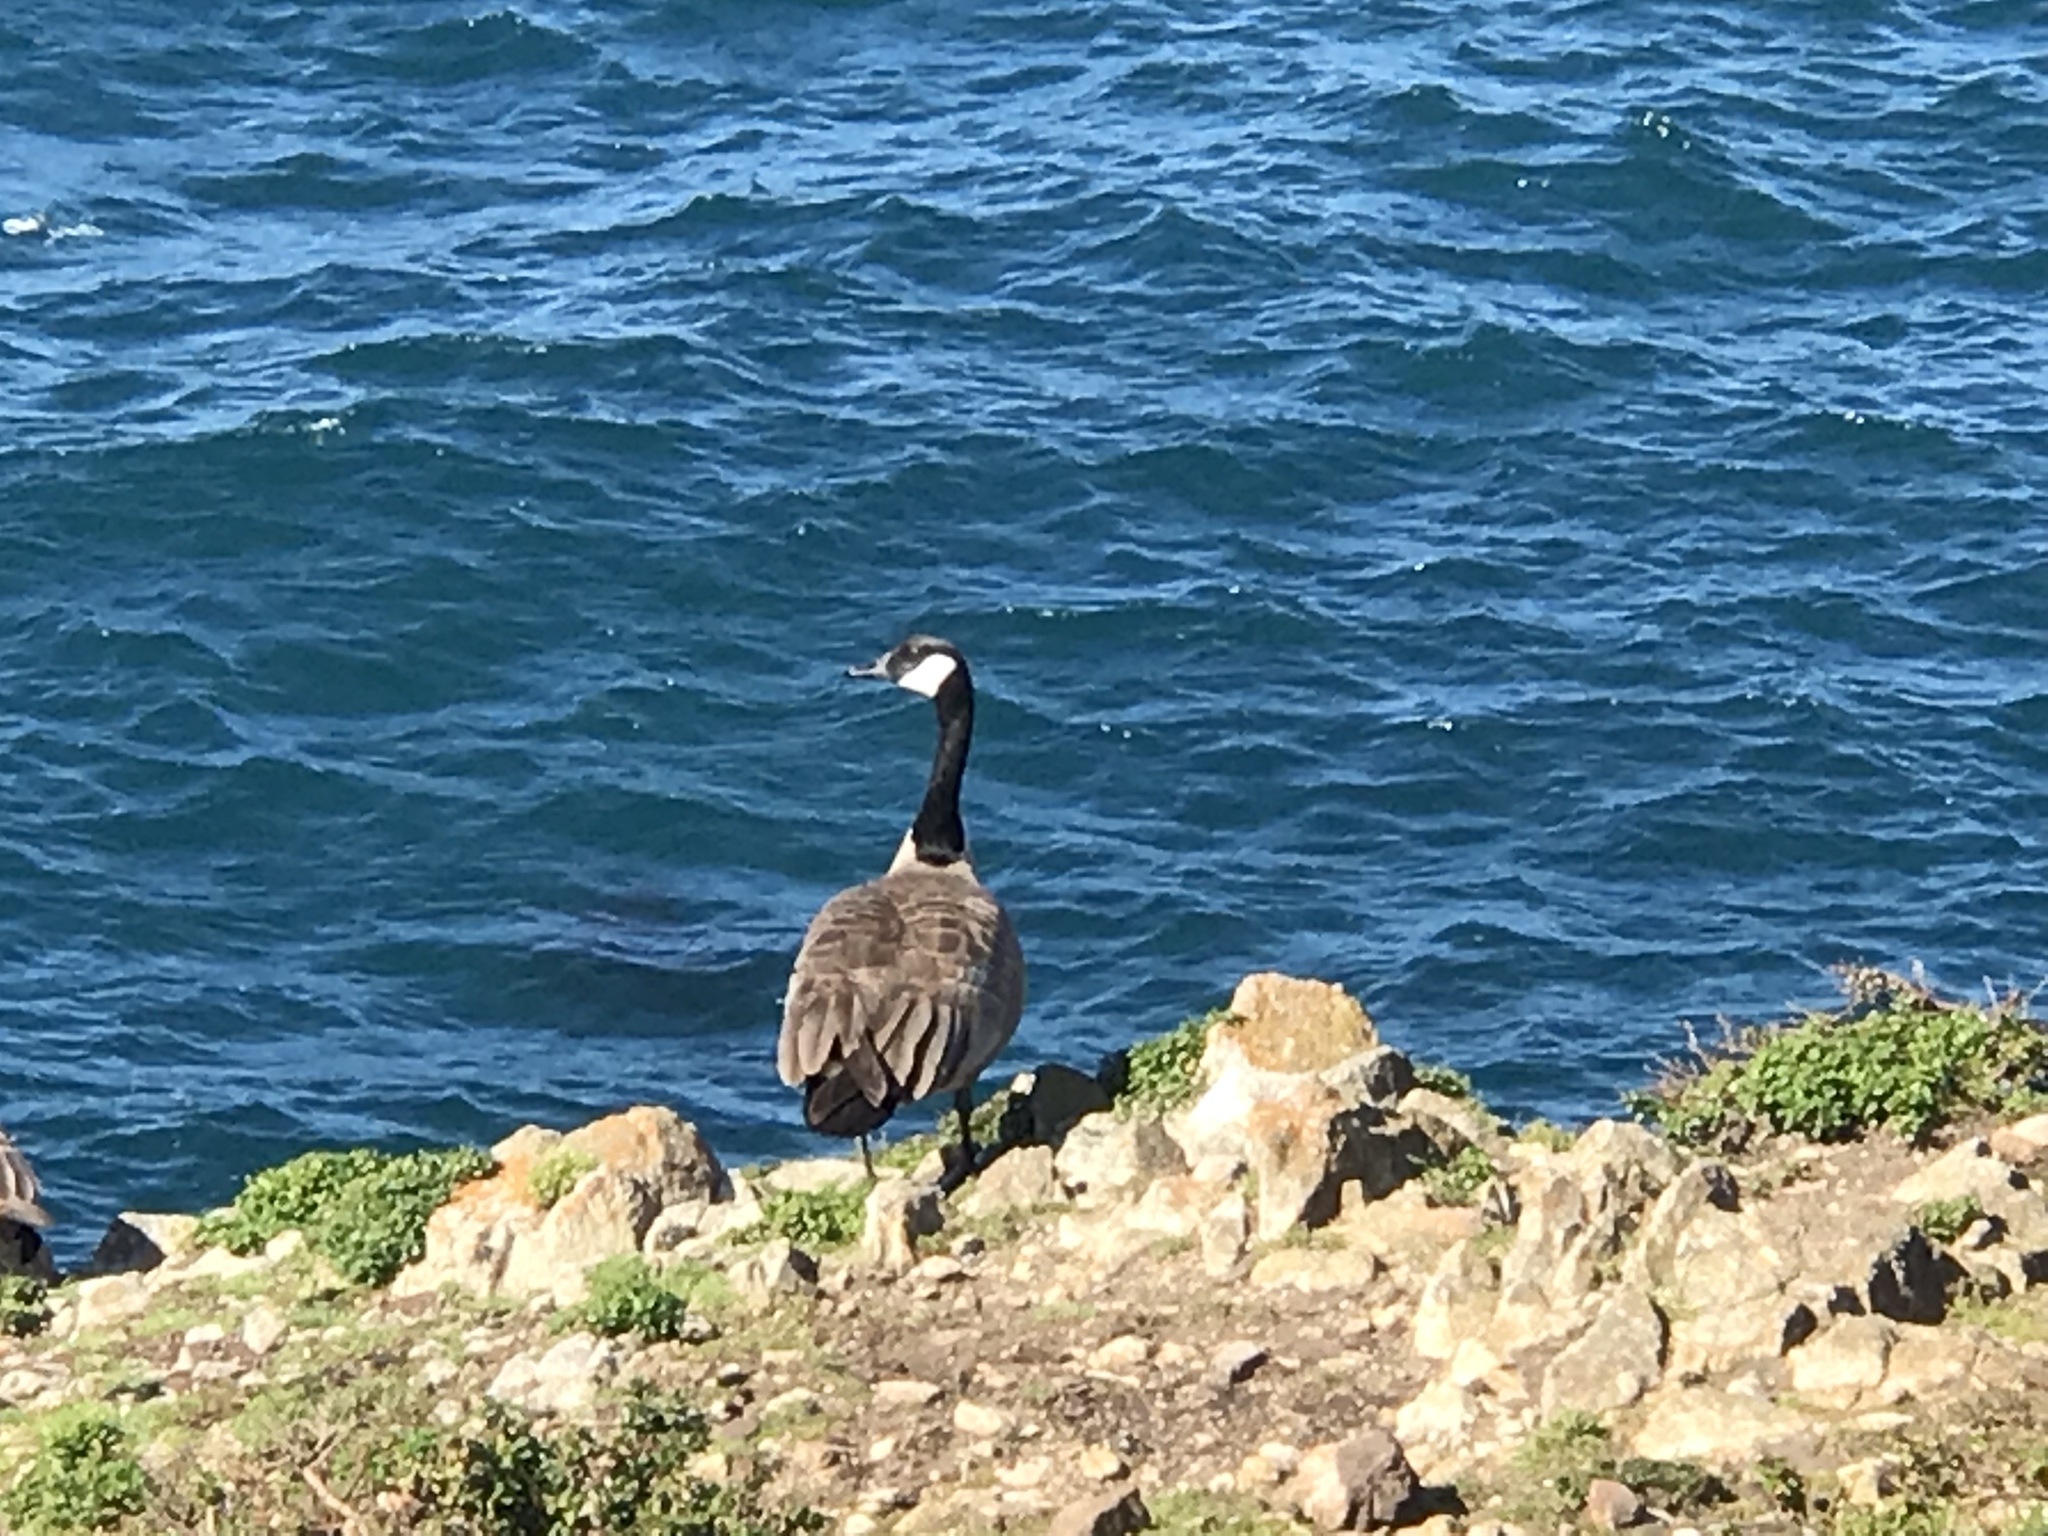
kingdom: Animalia
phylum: Chordata
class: Aves
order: Anseriformes
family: Anatidae
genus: Branta
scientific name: Branta canadensis
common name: Canada goose
